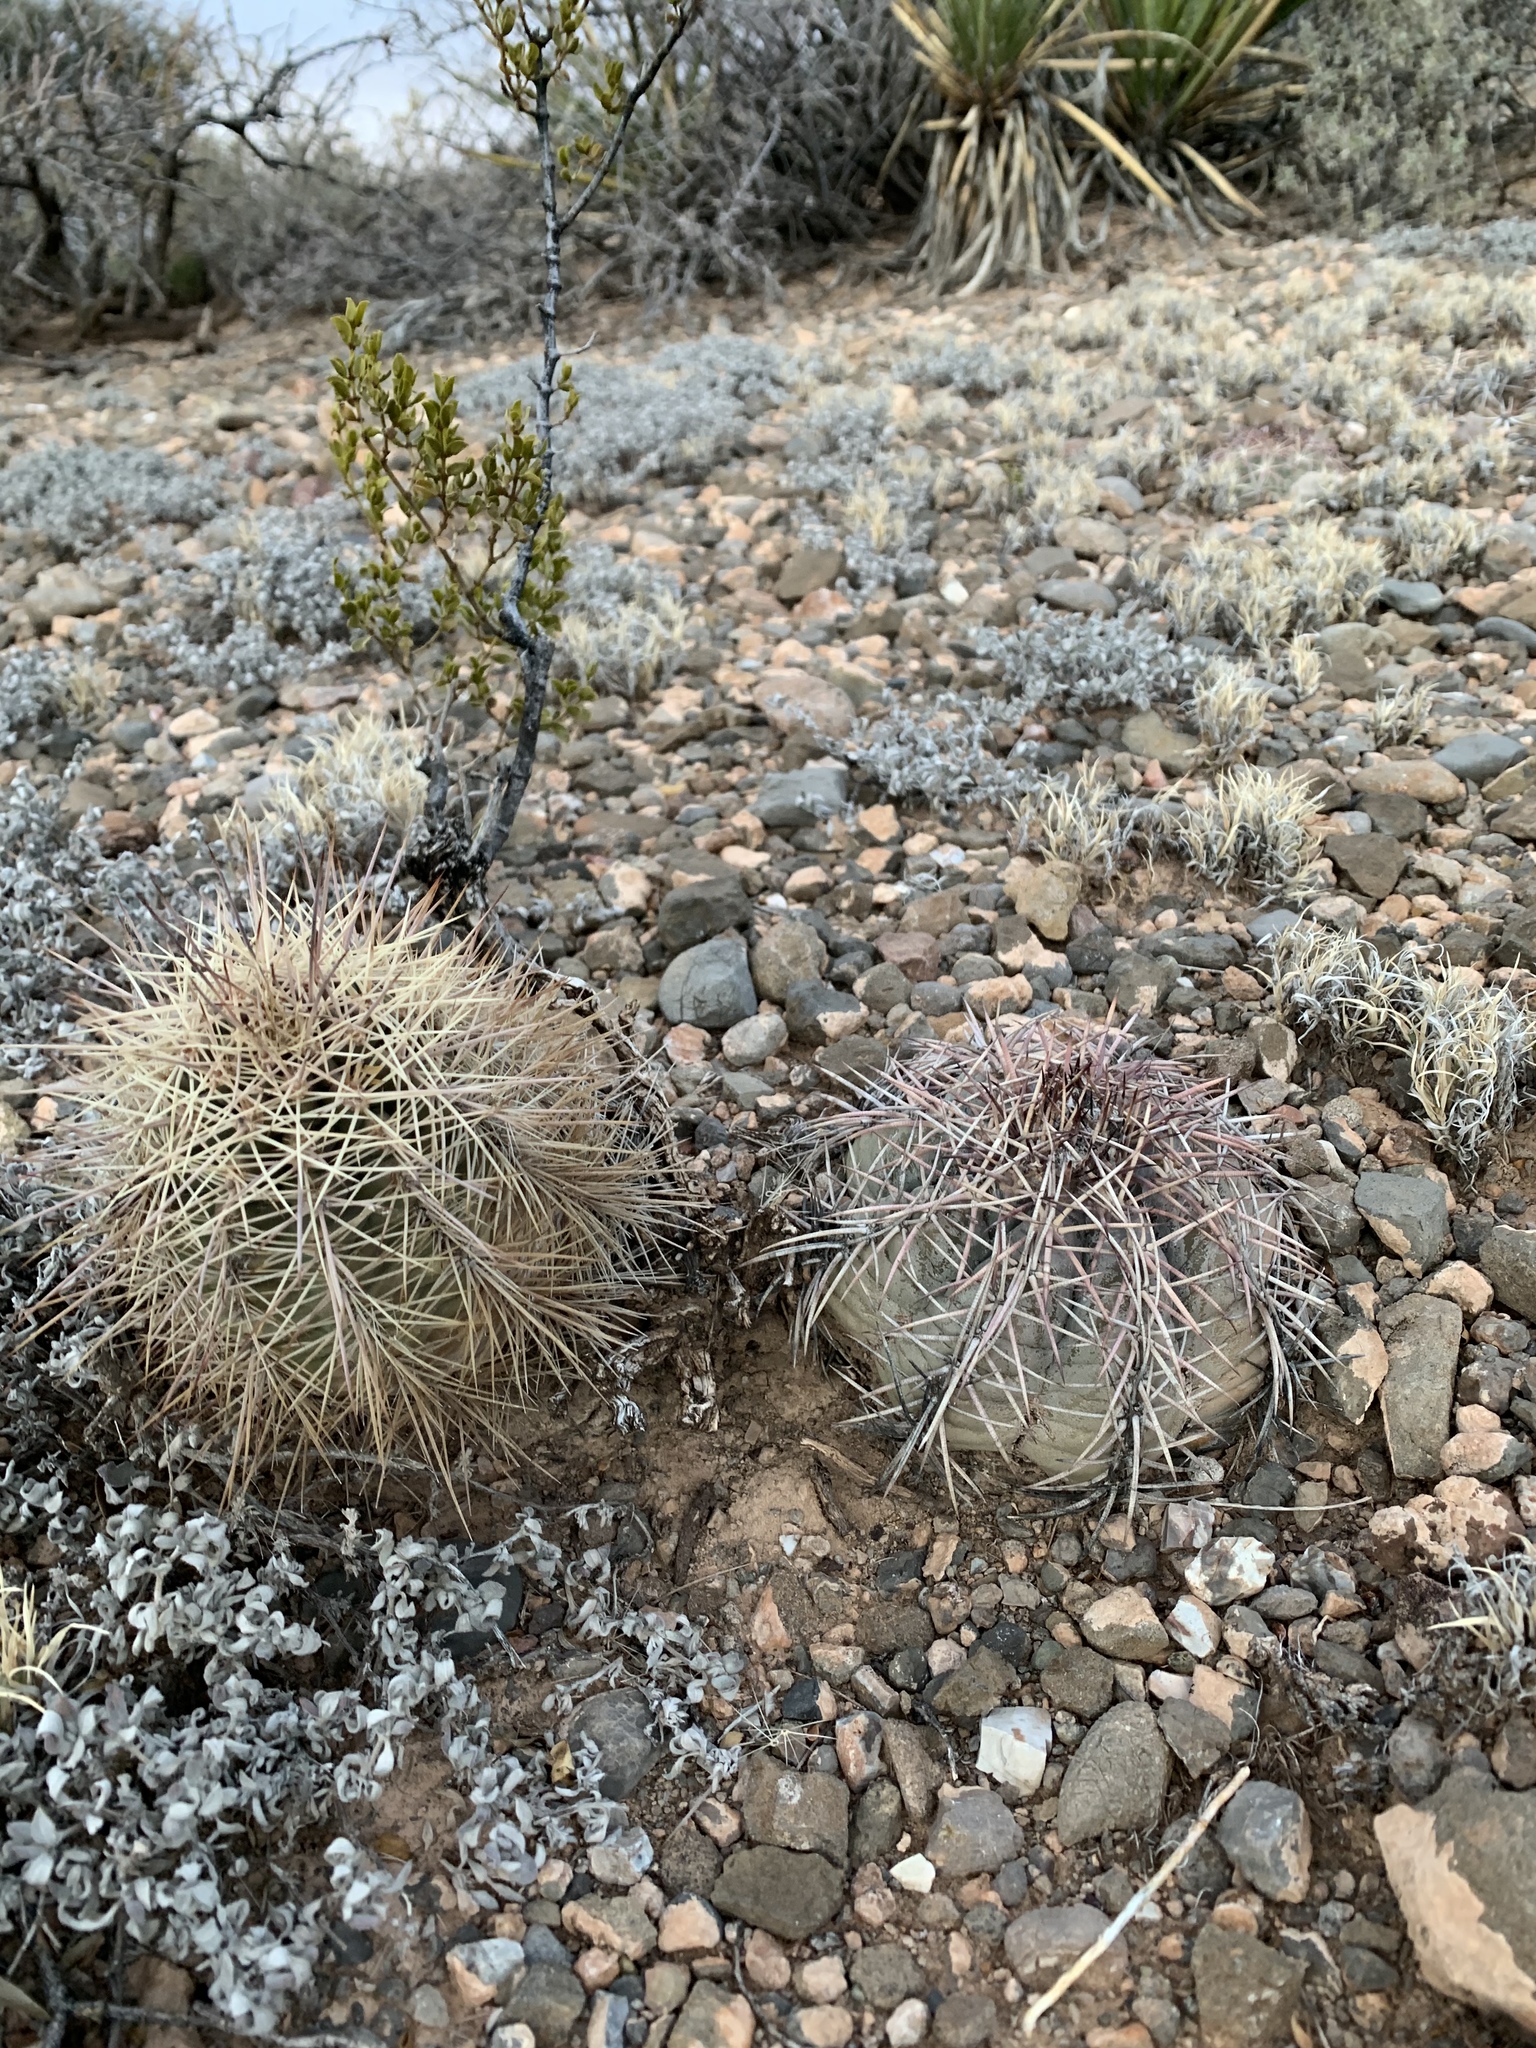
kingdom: Plantae
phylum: Tracheophyta
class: Magnoliopsida
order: Caryophyllales
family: Cactaceae
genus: Echinocactus
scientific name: Echinocactus horizonthalonius
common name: Devilshead
